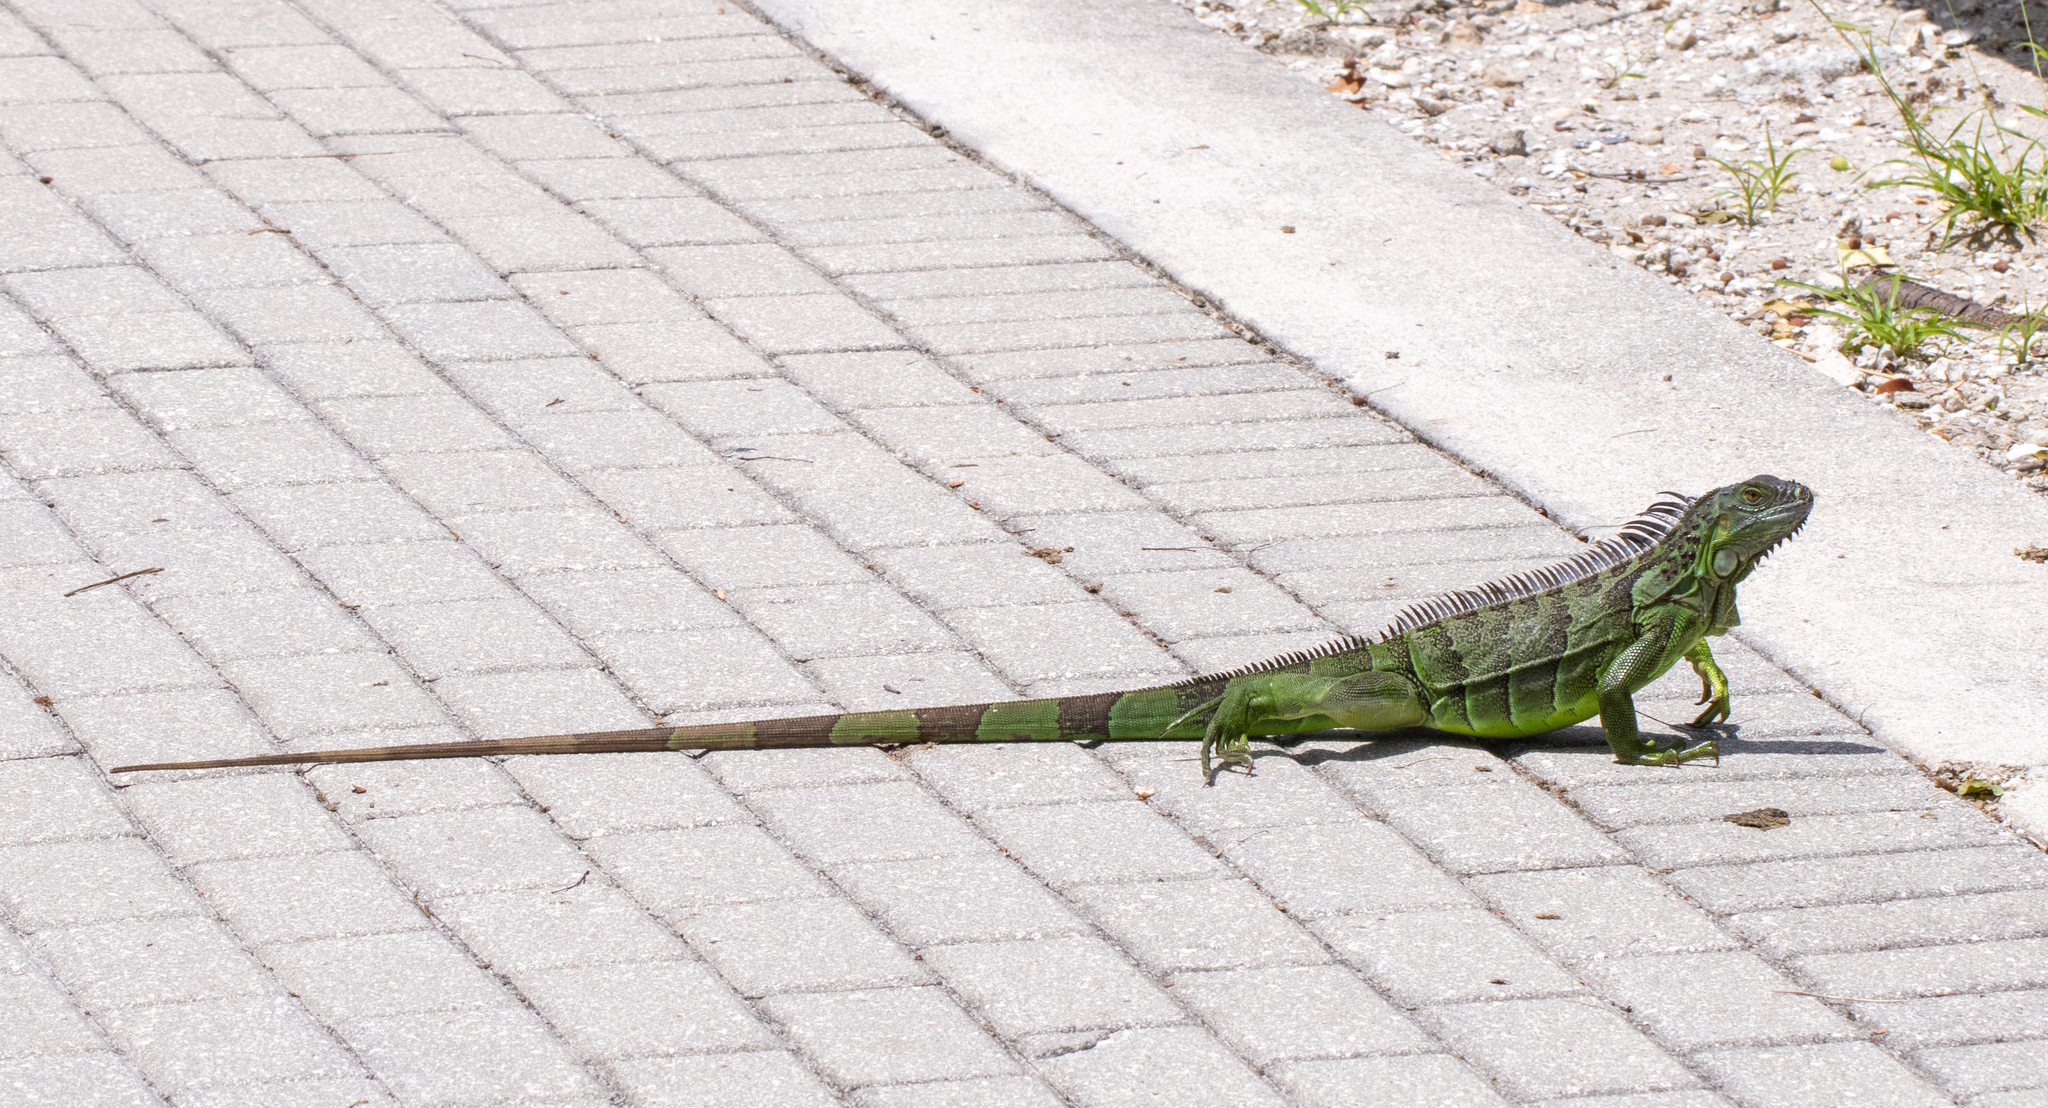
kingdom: Animalia
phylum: Chordata
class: Squamata
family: Iguanidae
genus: Iguana
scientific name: Iguana iguana
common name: Green iguana
